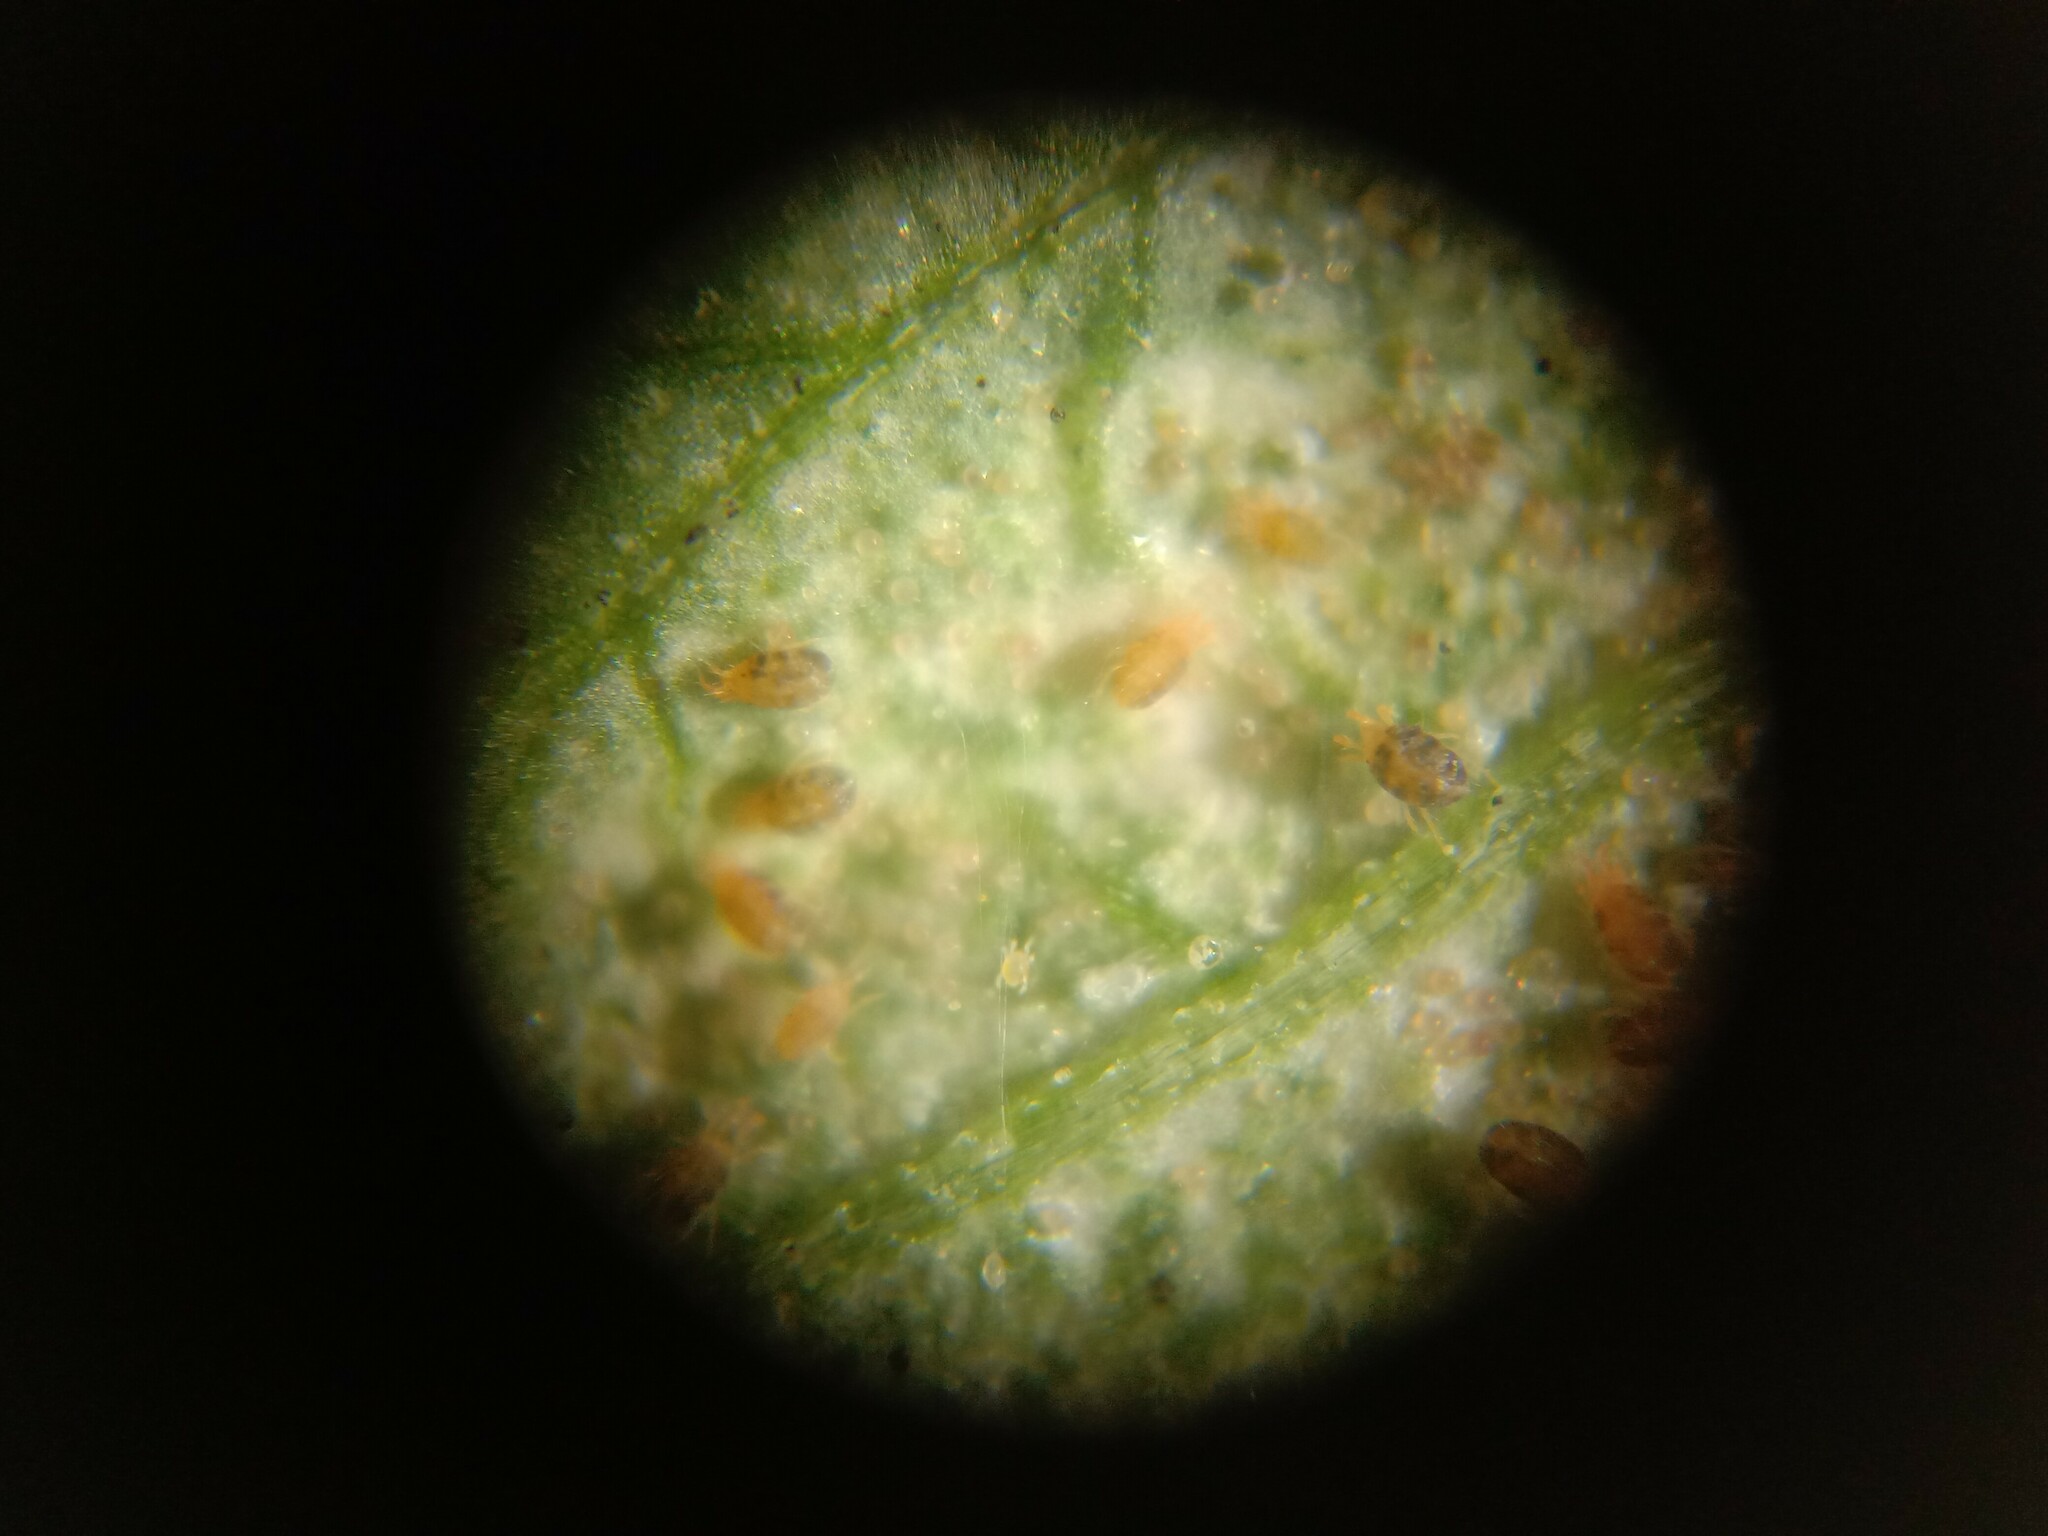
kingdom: Animalia
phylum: Arthropoda
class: Arachnida
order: Trombidiformes
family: Tetranychidae
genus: Tetranychus
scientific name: Tetranychus urticae
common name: Carmine spider mite
